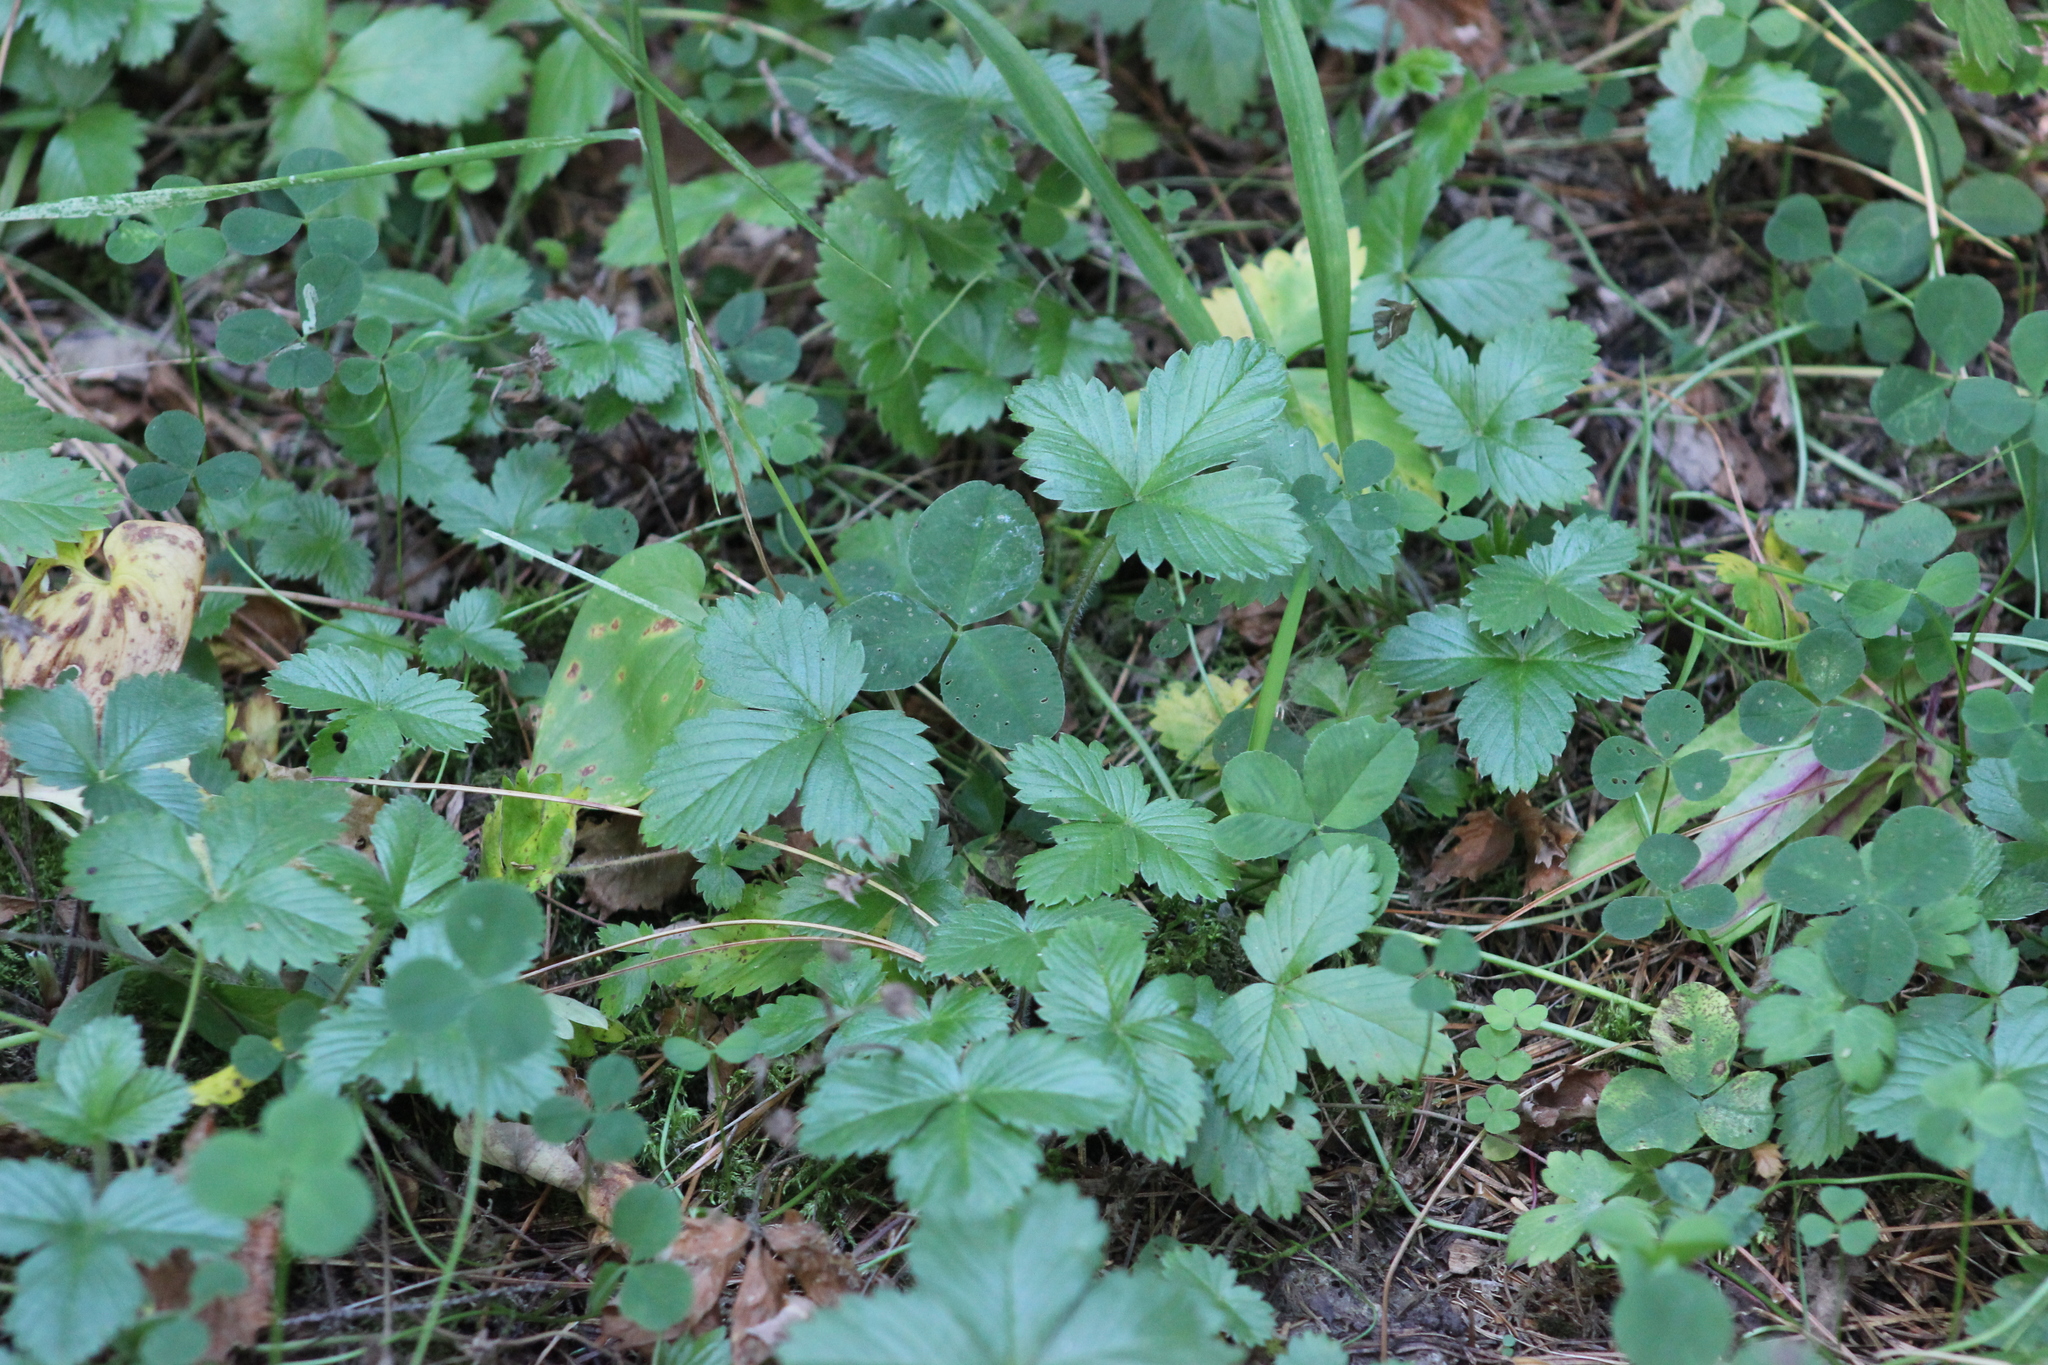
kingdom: Plantae
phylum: Tracheophyta
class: Magnoliopsida
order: Rosales
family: Rosaceae
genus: Fragaria
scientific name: Fragaria vesca
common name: Wild strawberry
